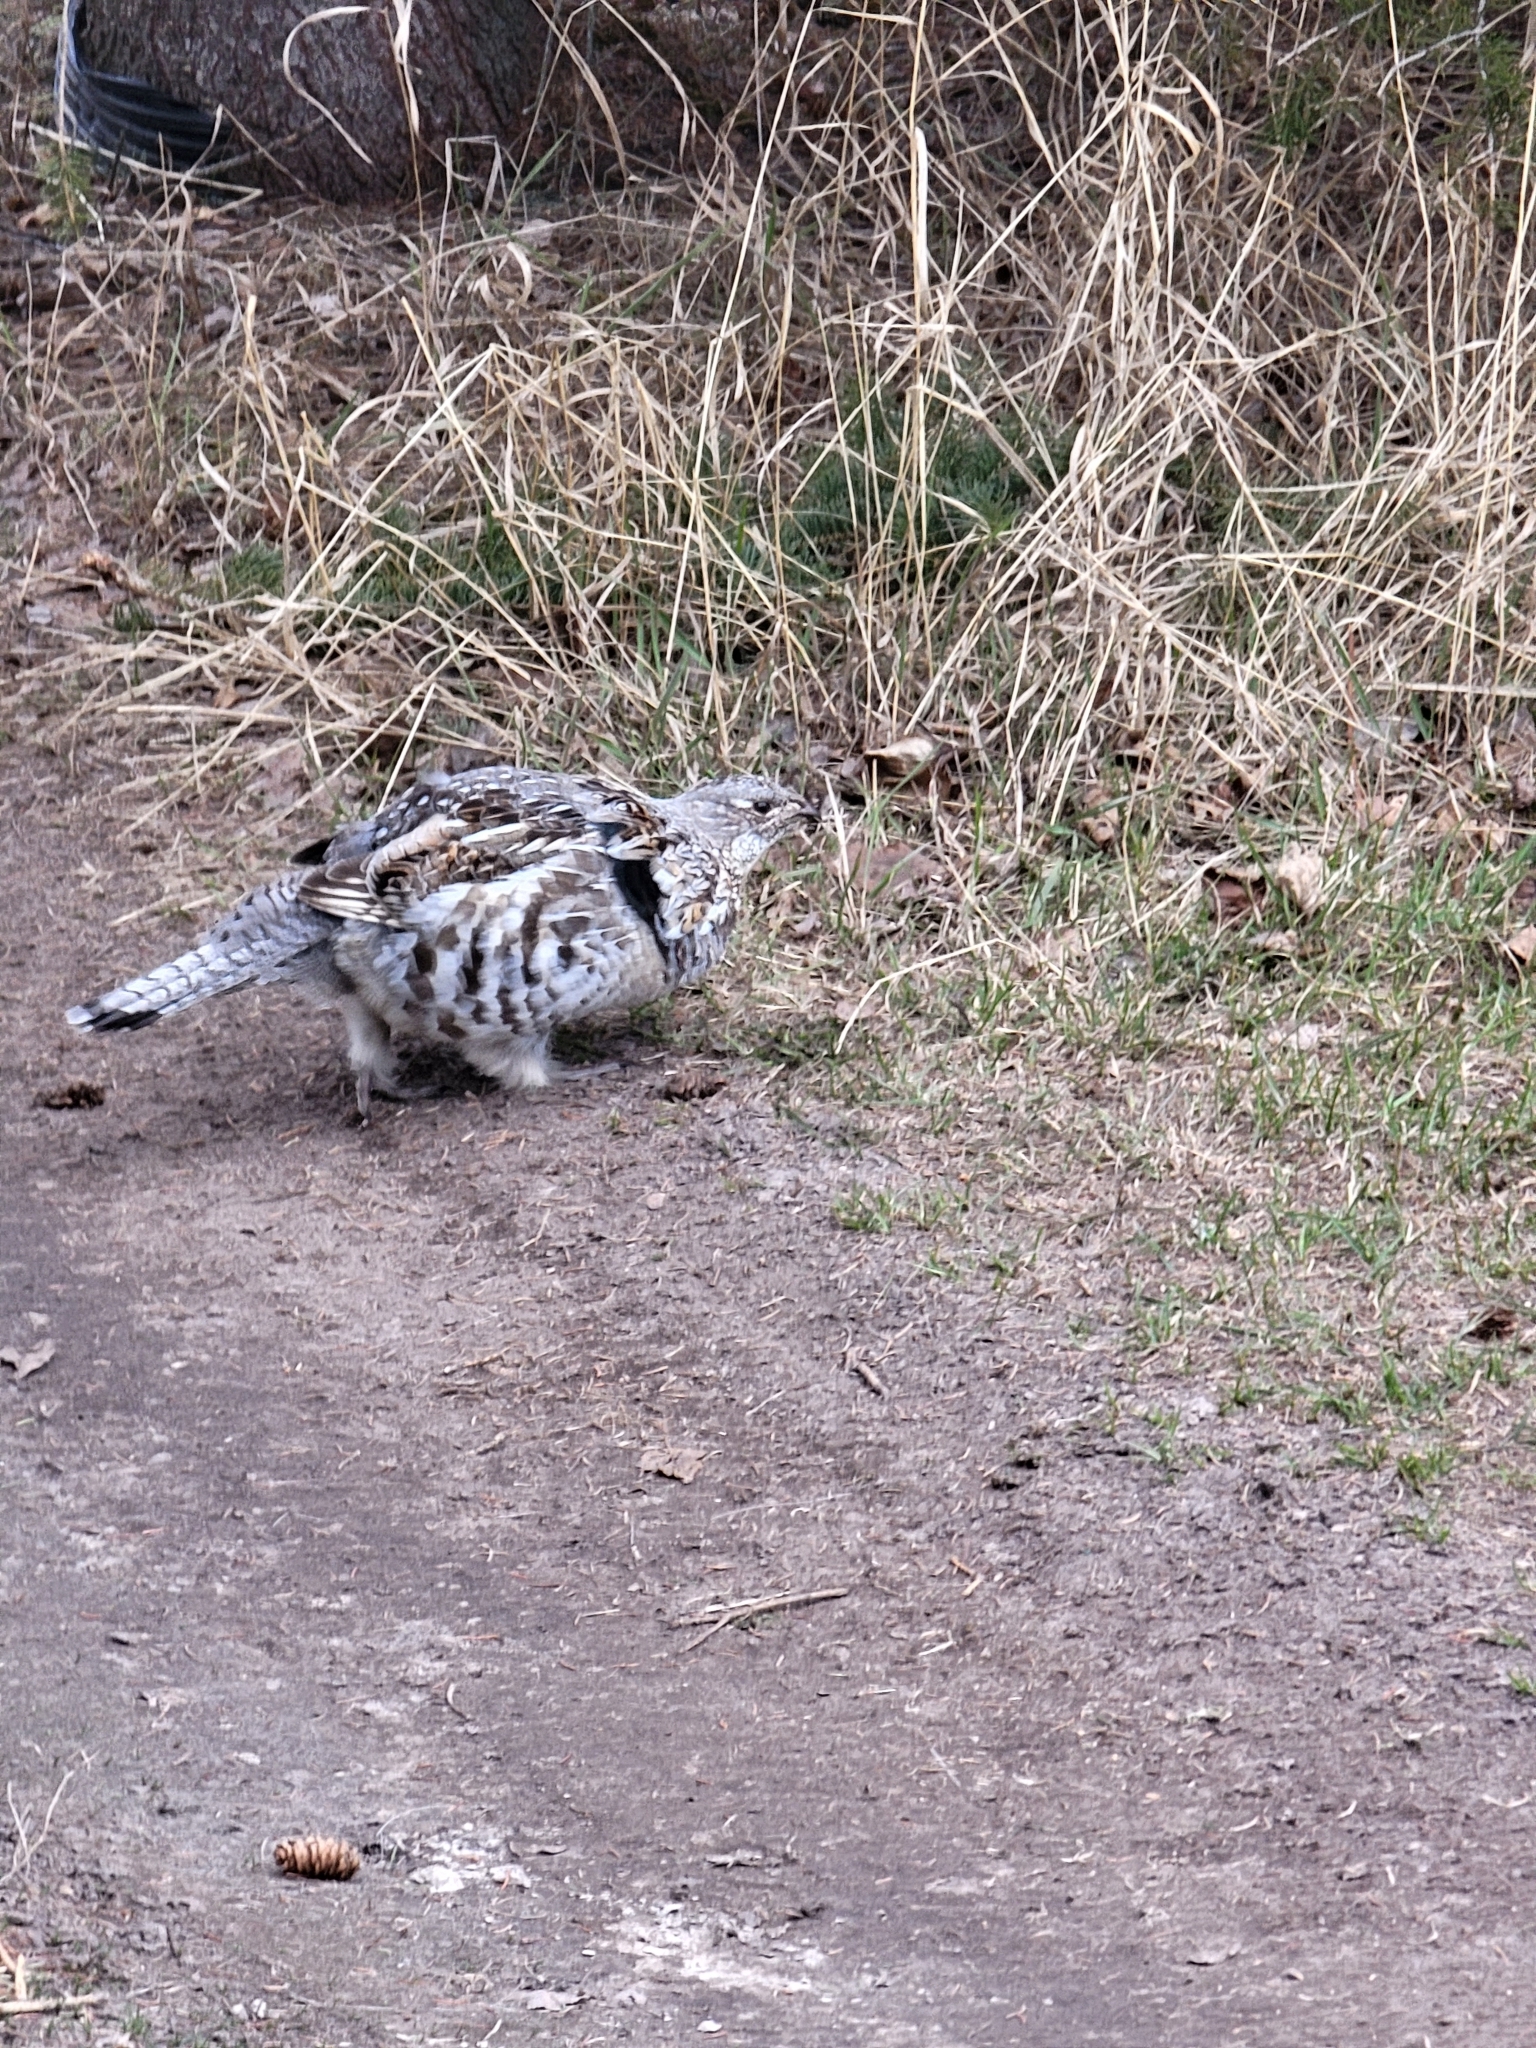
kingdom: Animalia
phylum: Chordata
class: Aves
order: Galliformes
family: Phasianidae
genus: Bonasa
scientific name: Bonasa umbellus
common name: Ruffed grouse
